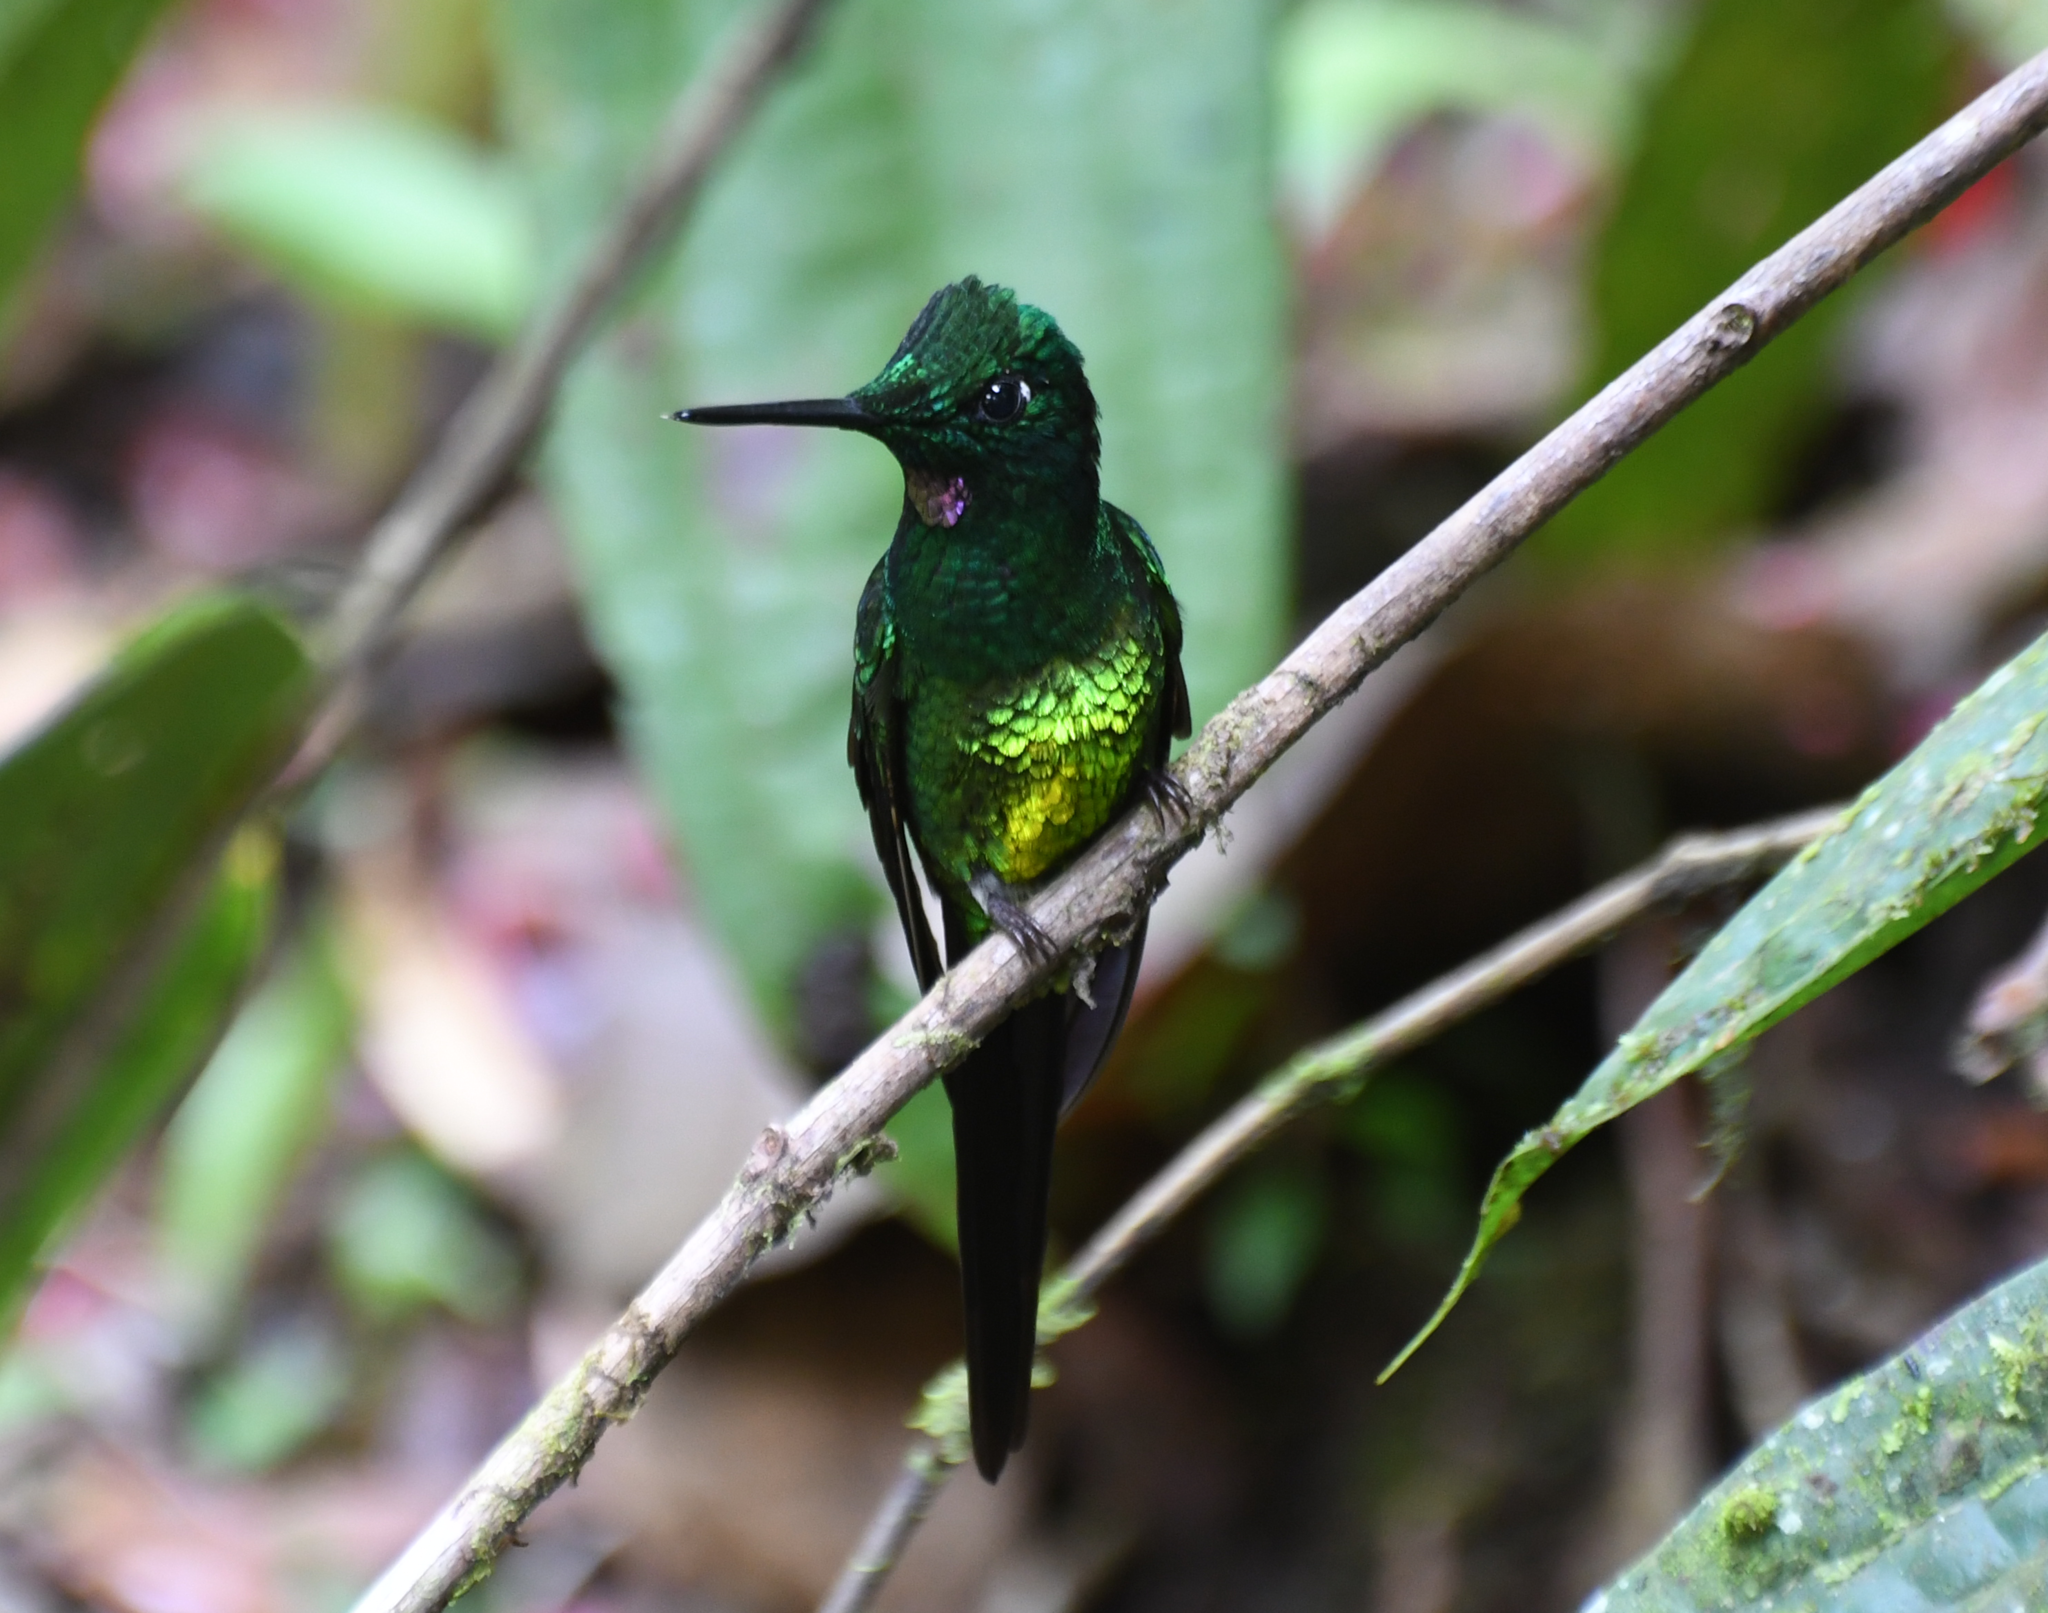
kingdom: Animalia
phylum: Chordata
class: Aves
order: Apodiformes
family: Trochilidae
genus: Heliodoxa
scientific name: Heliodoxa imperatrix
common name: Empress brilliant
